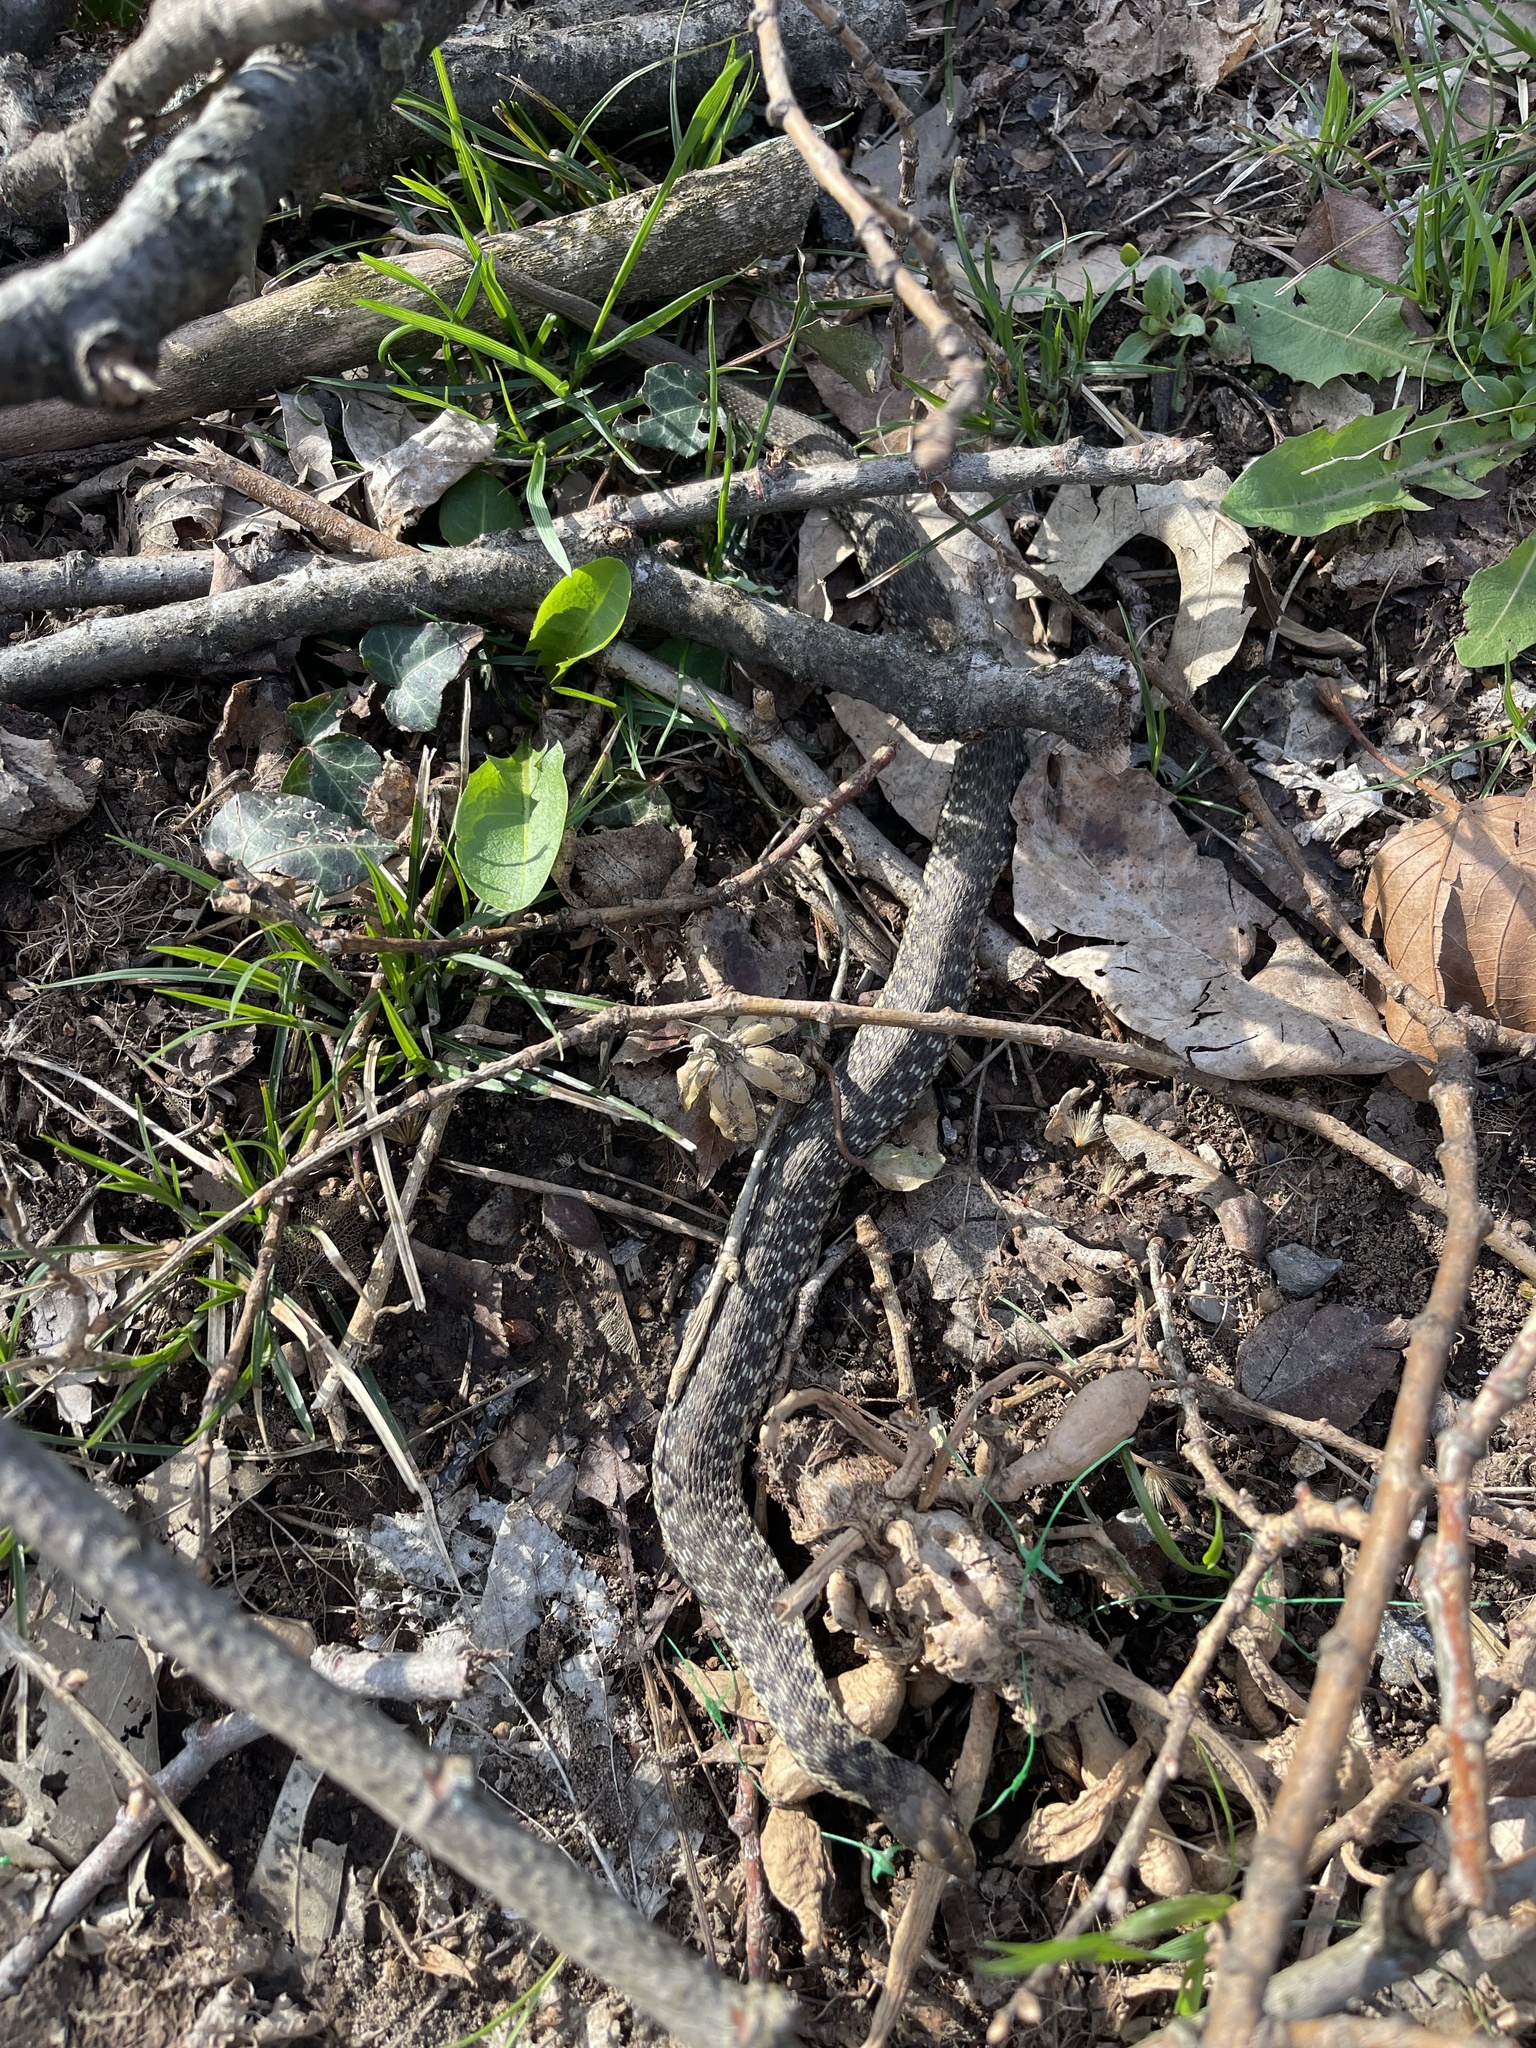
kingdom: Animalia
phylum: Chordata
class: Squamata
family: Colubridae
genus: Thamnophis
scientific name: Thamnophis sirtalis
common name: Common garter snake
